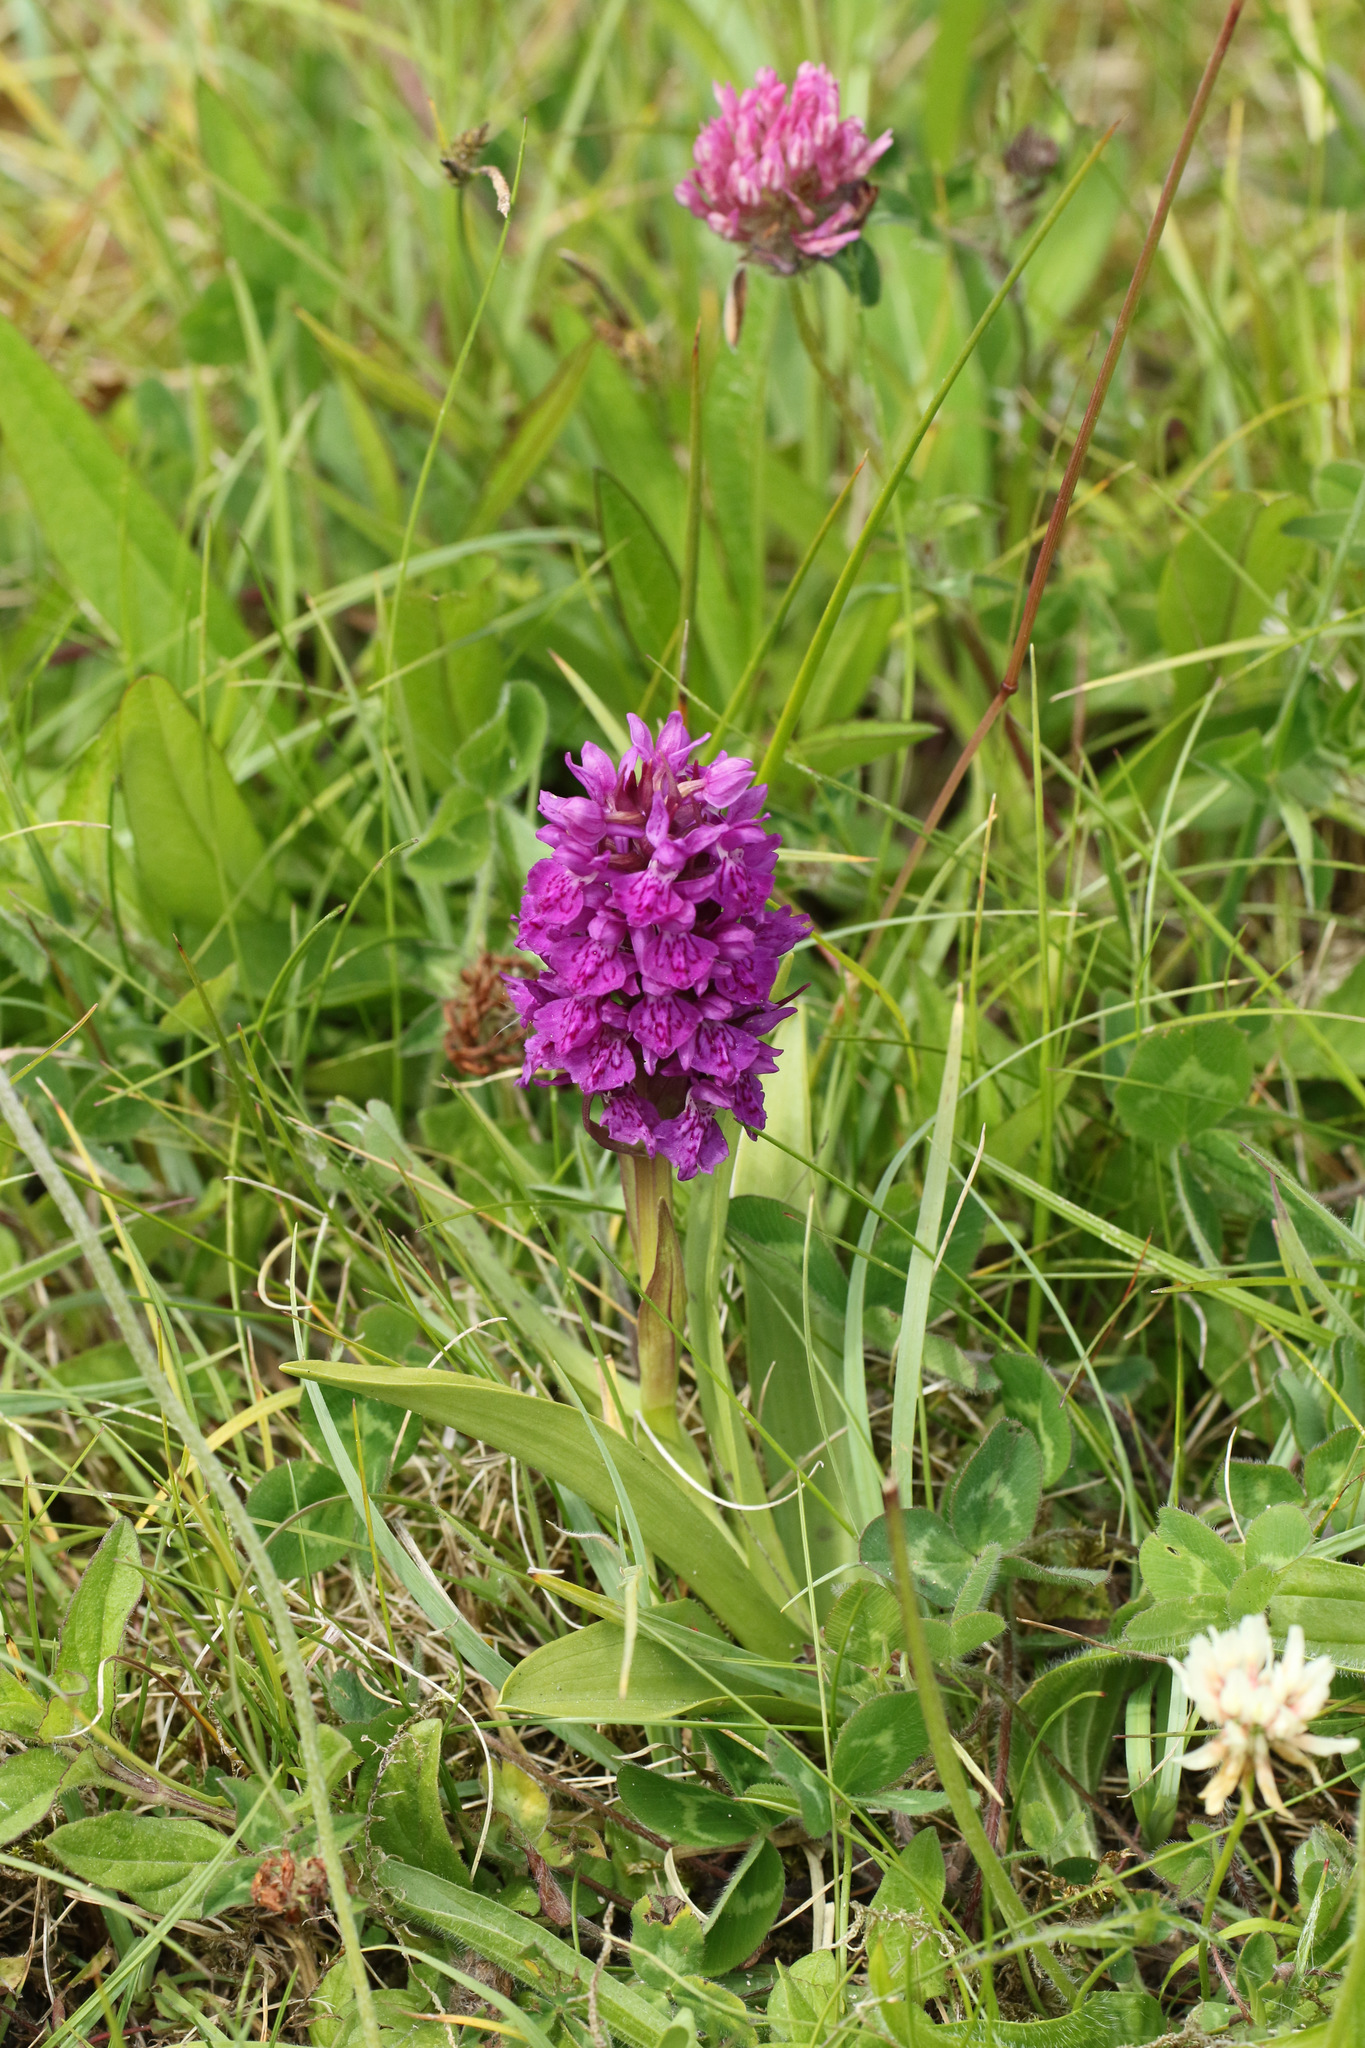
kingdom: Plantae
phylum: Tracheophyta
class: Liliopsida
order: Asparagales
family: Orchidaceae
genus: Dactylorhiza
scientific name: Dactylorhiza majalis
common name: Marsh orchid
